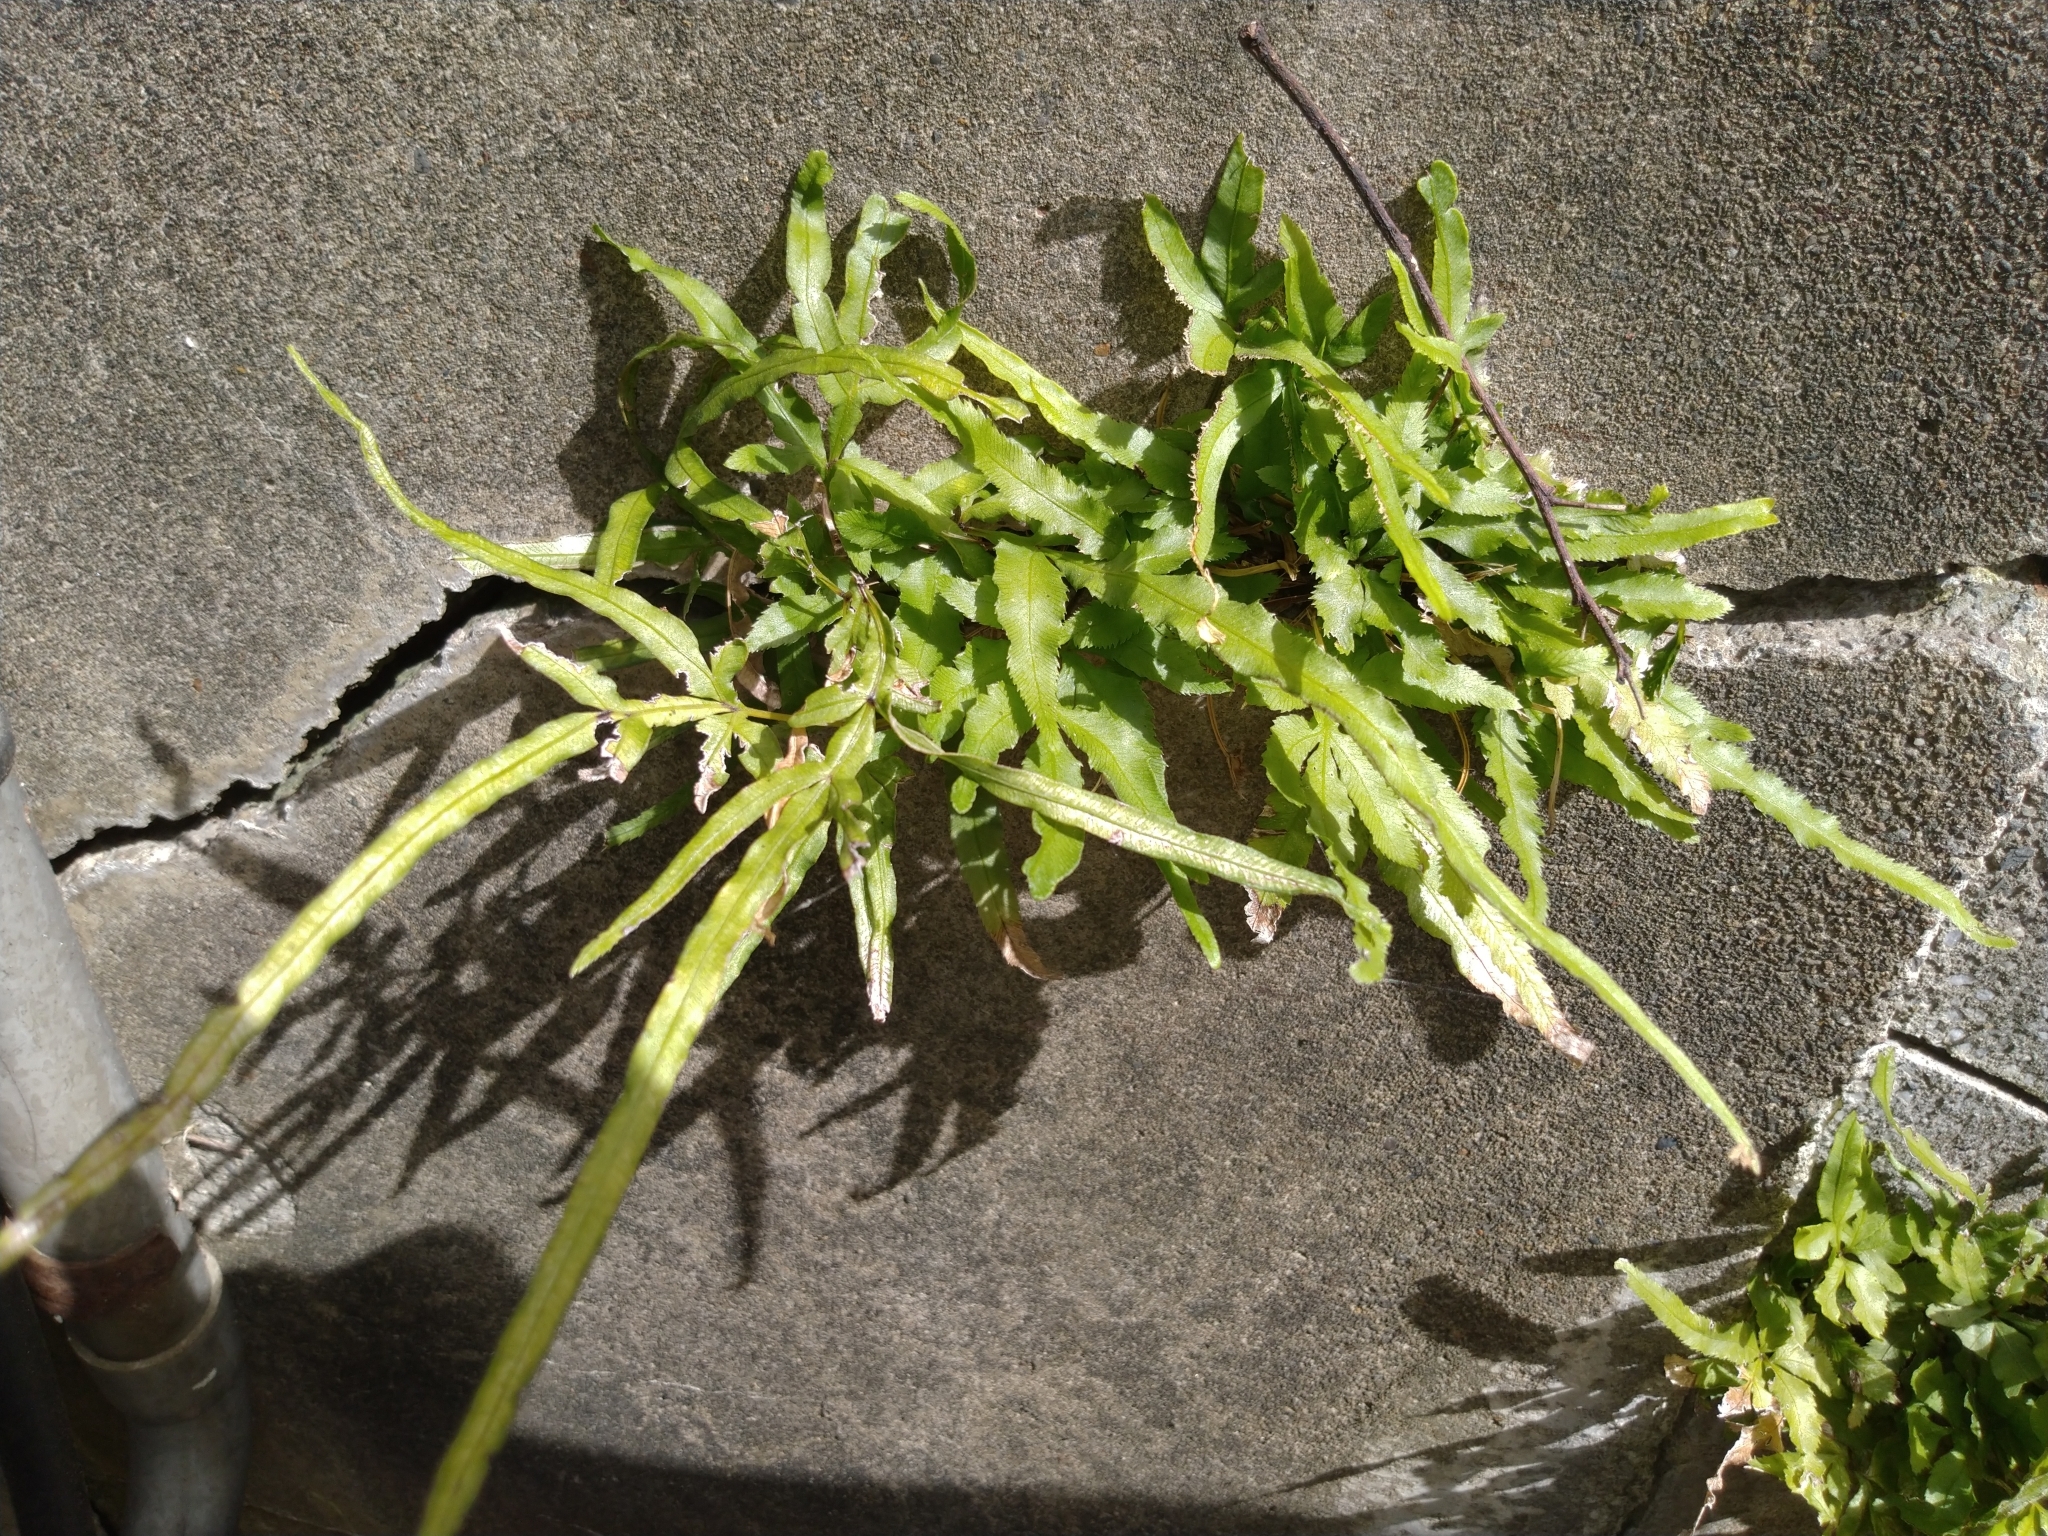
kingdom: Plantae
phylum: Tracheophyta
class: Polypodiopsida
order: Polypodiales
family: Pteridaceae
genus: Pteris
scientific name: Pteris multifida
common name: Spider brake
